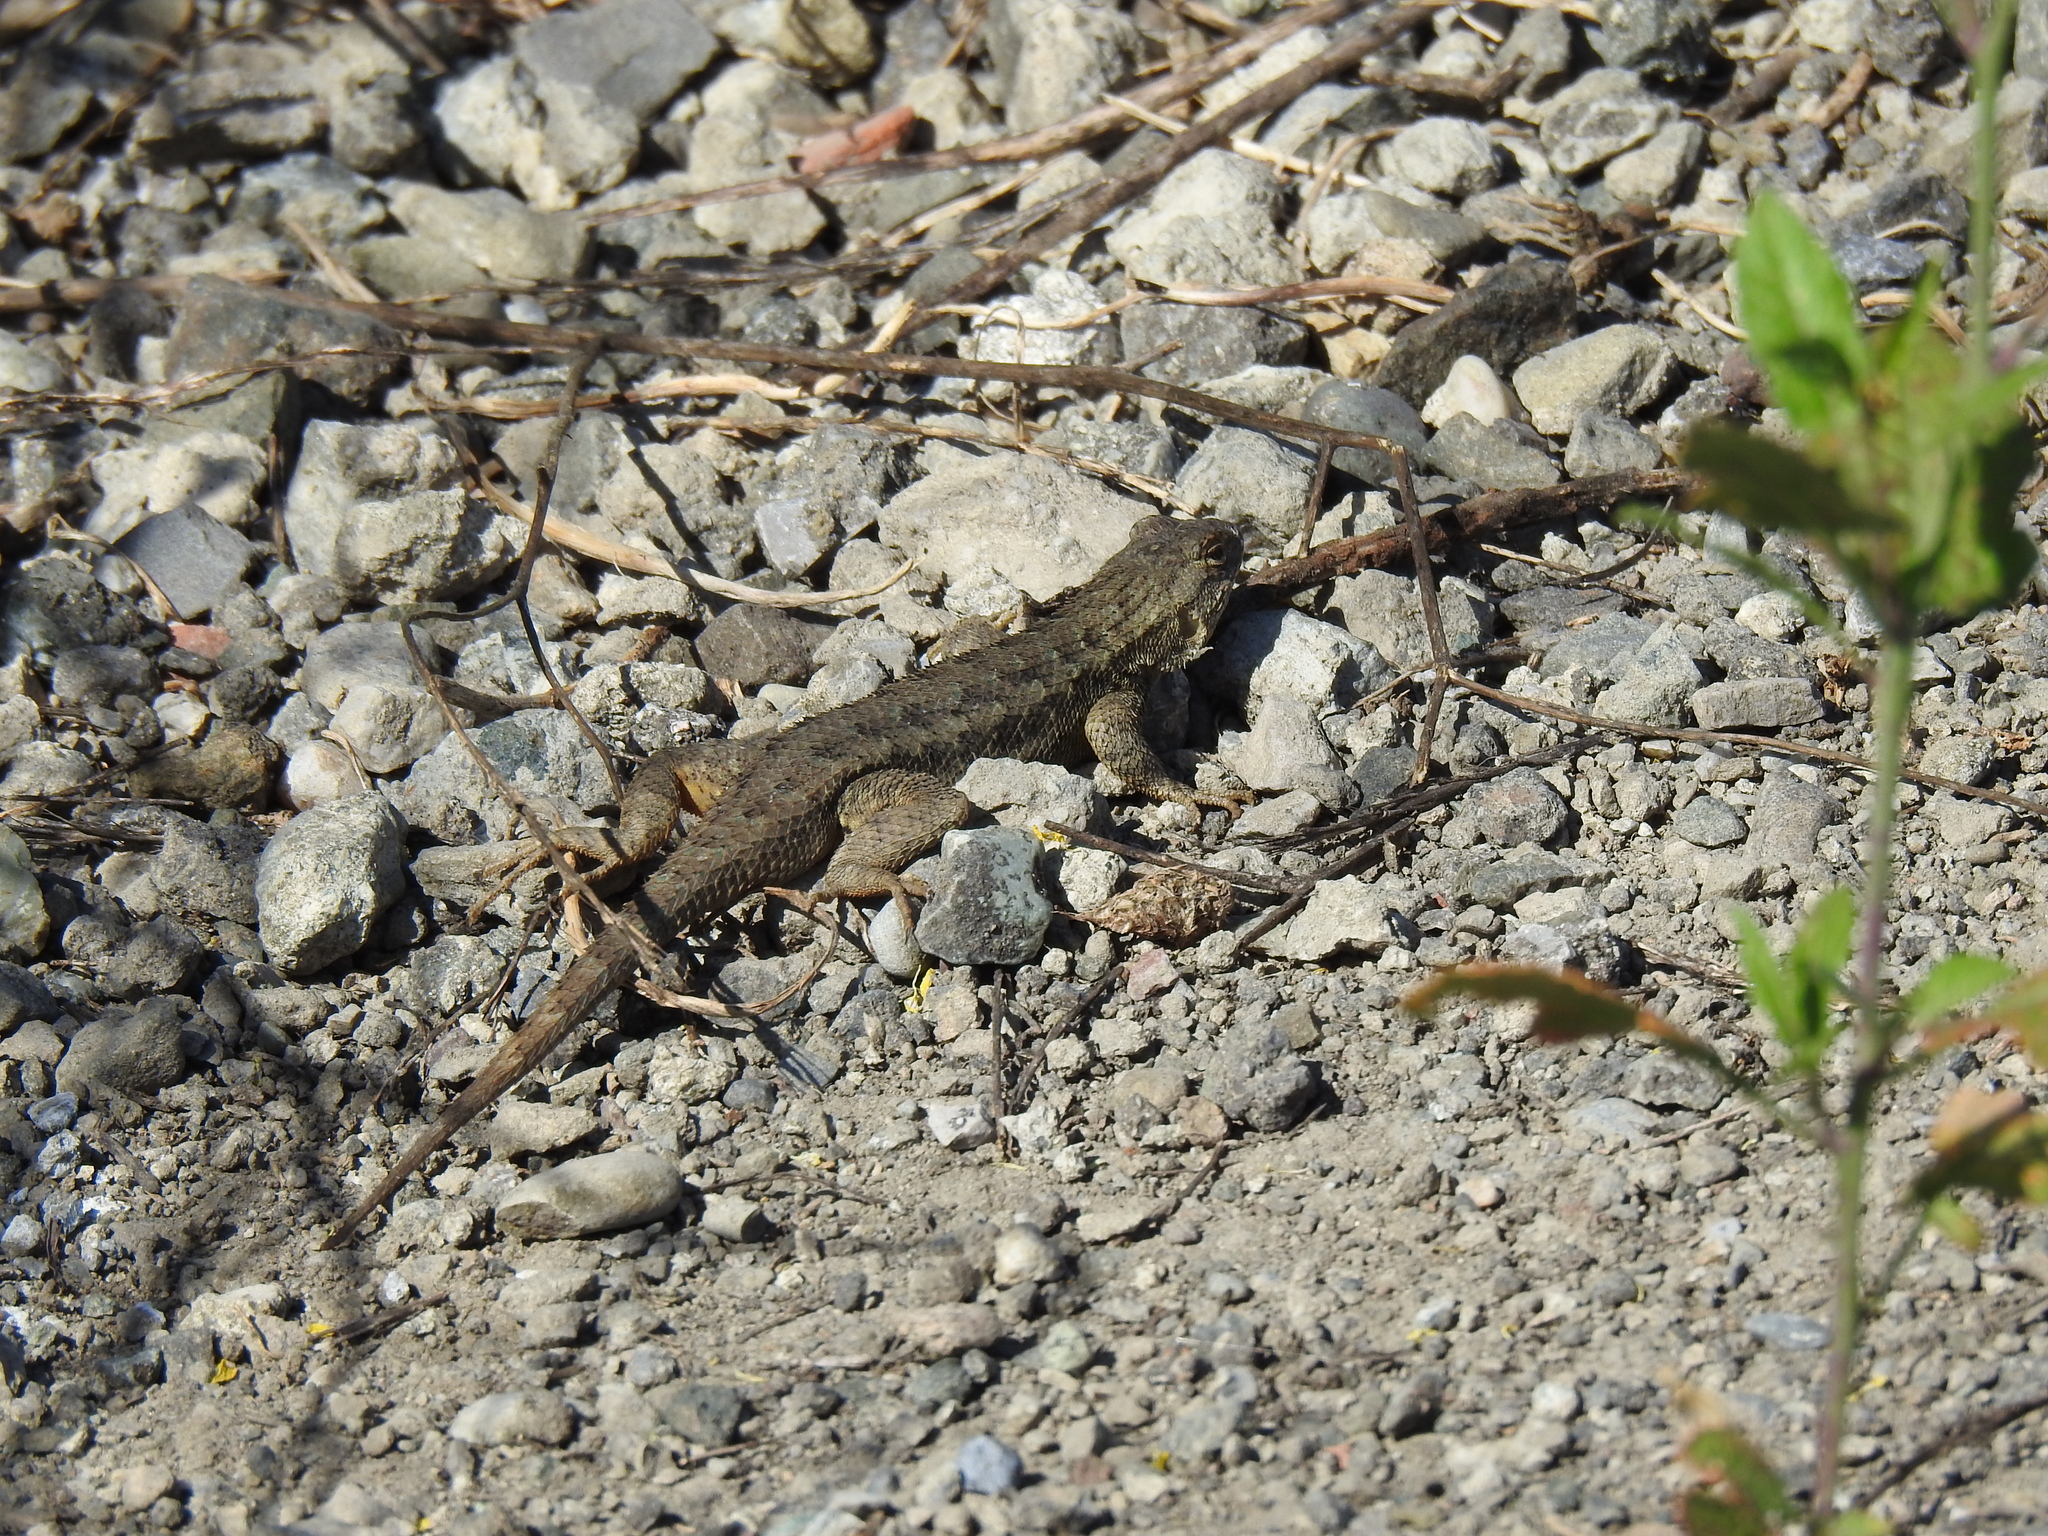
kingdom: Animalia
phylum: Chordata
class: Squamata
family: Phrynosomatidae
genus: Sceloporus
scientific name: Sceloporus occidentalis
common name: Western fence lizard
